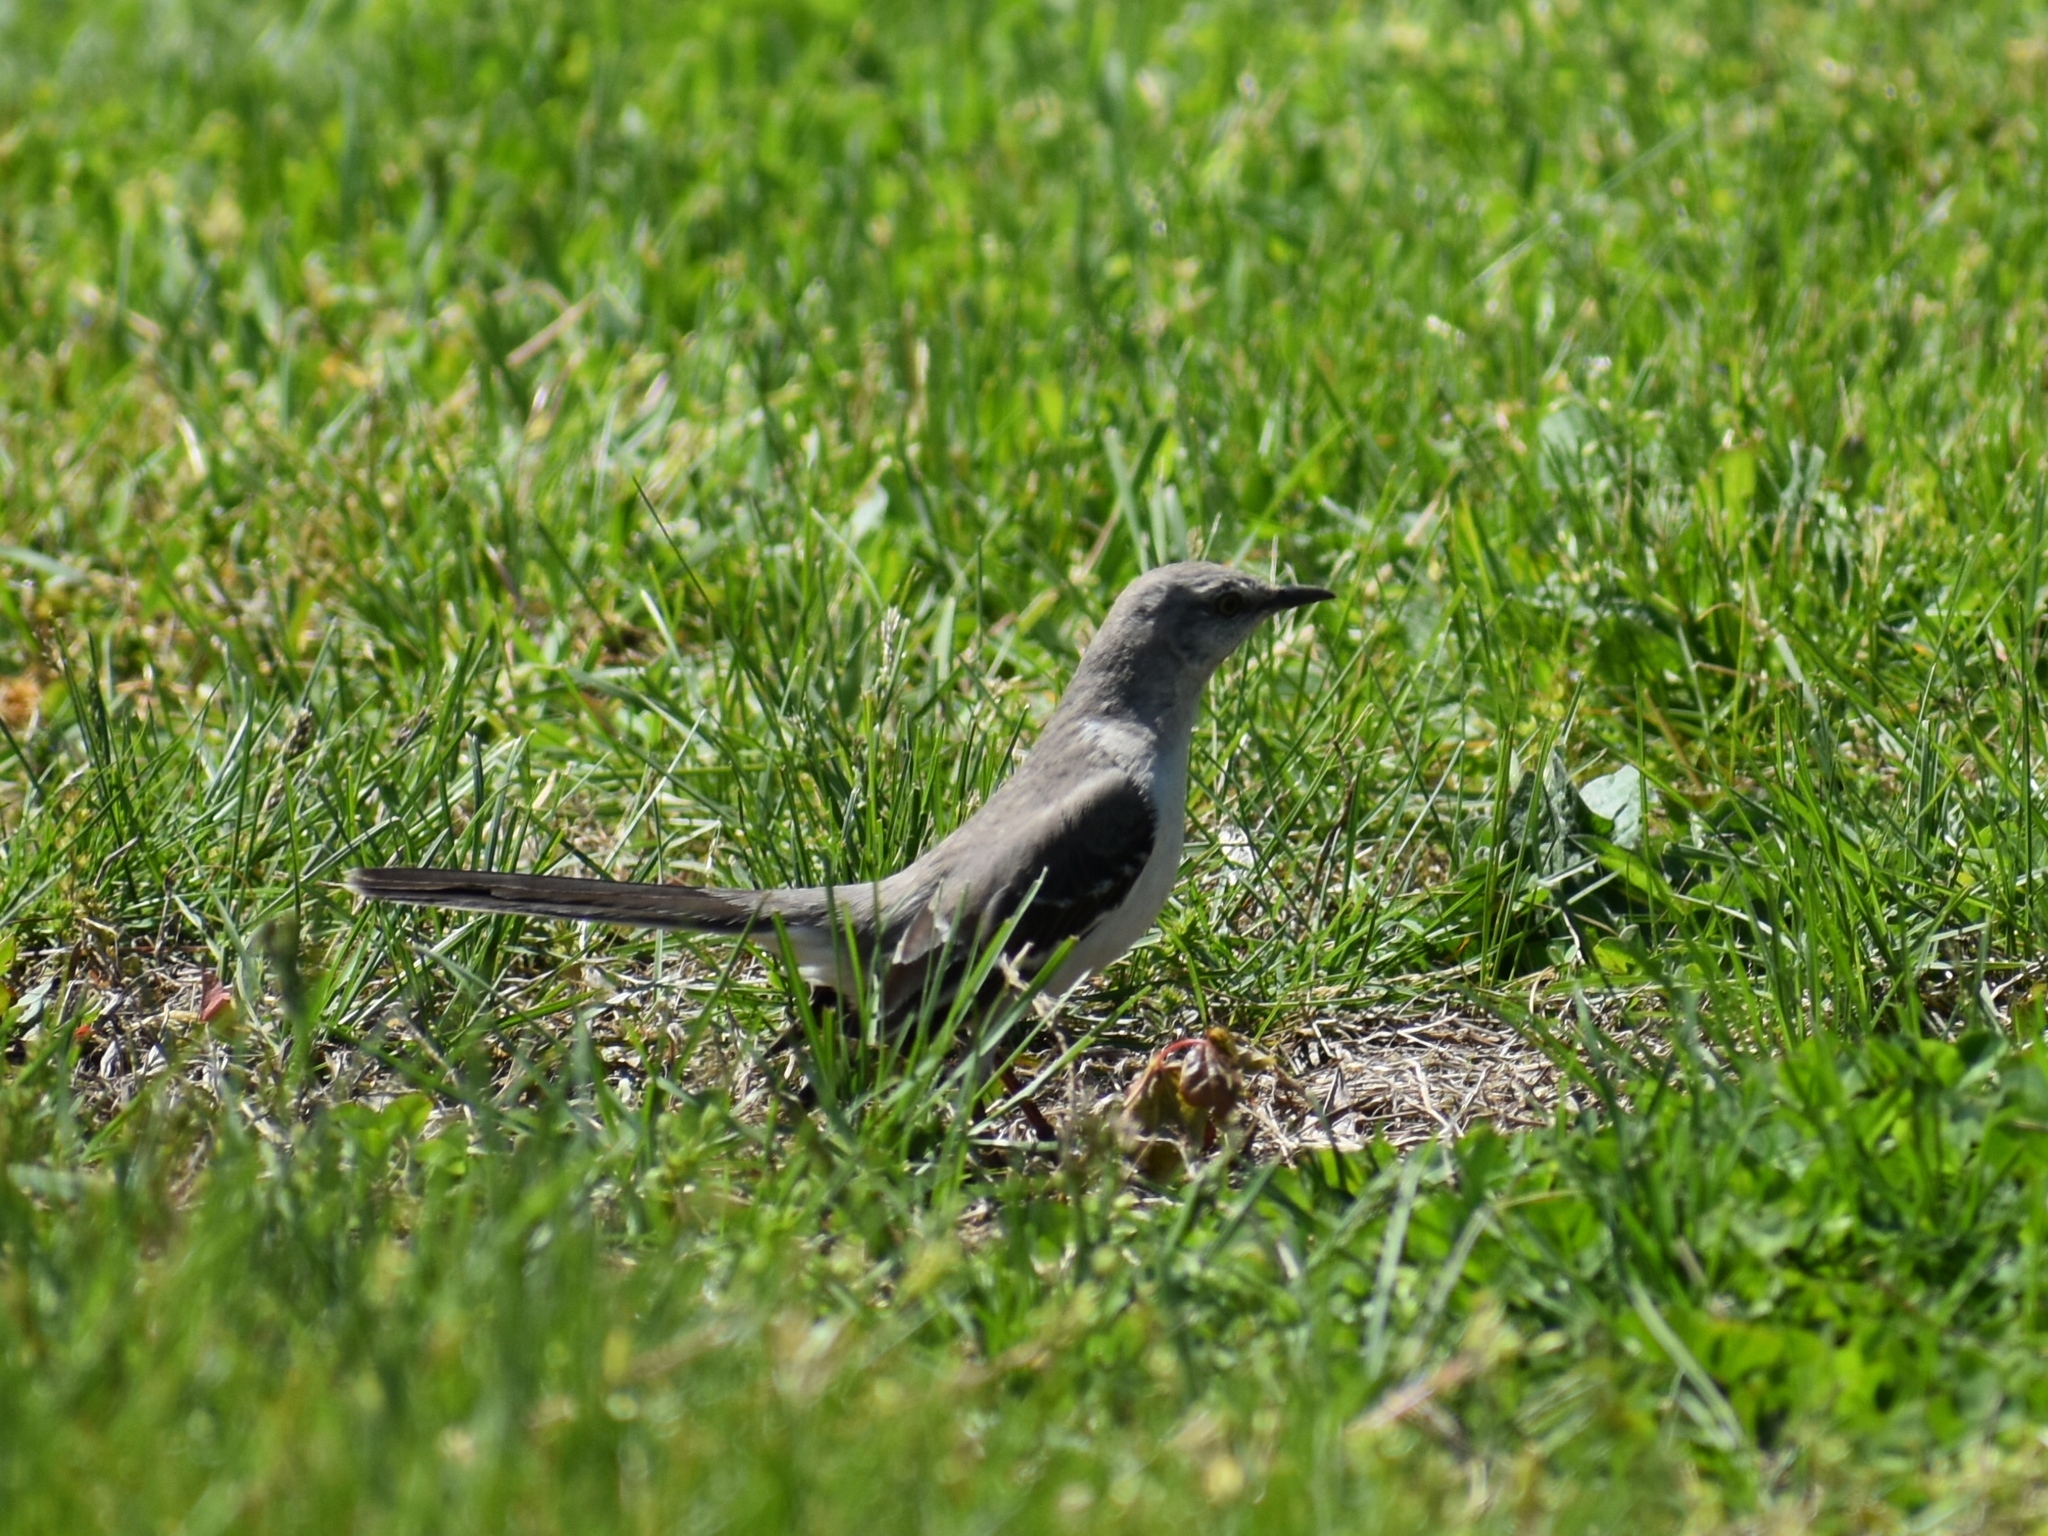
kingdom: Animalia
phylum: Chordata
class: Aves
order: Passeriformes
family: Mimidae
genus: Mimus
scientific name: Mimus polyglottos
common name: Northern mockingbird
